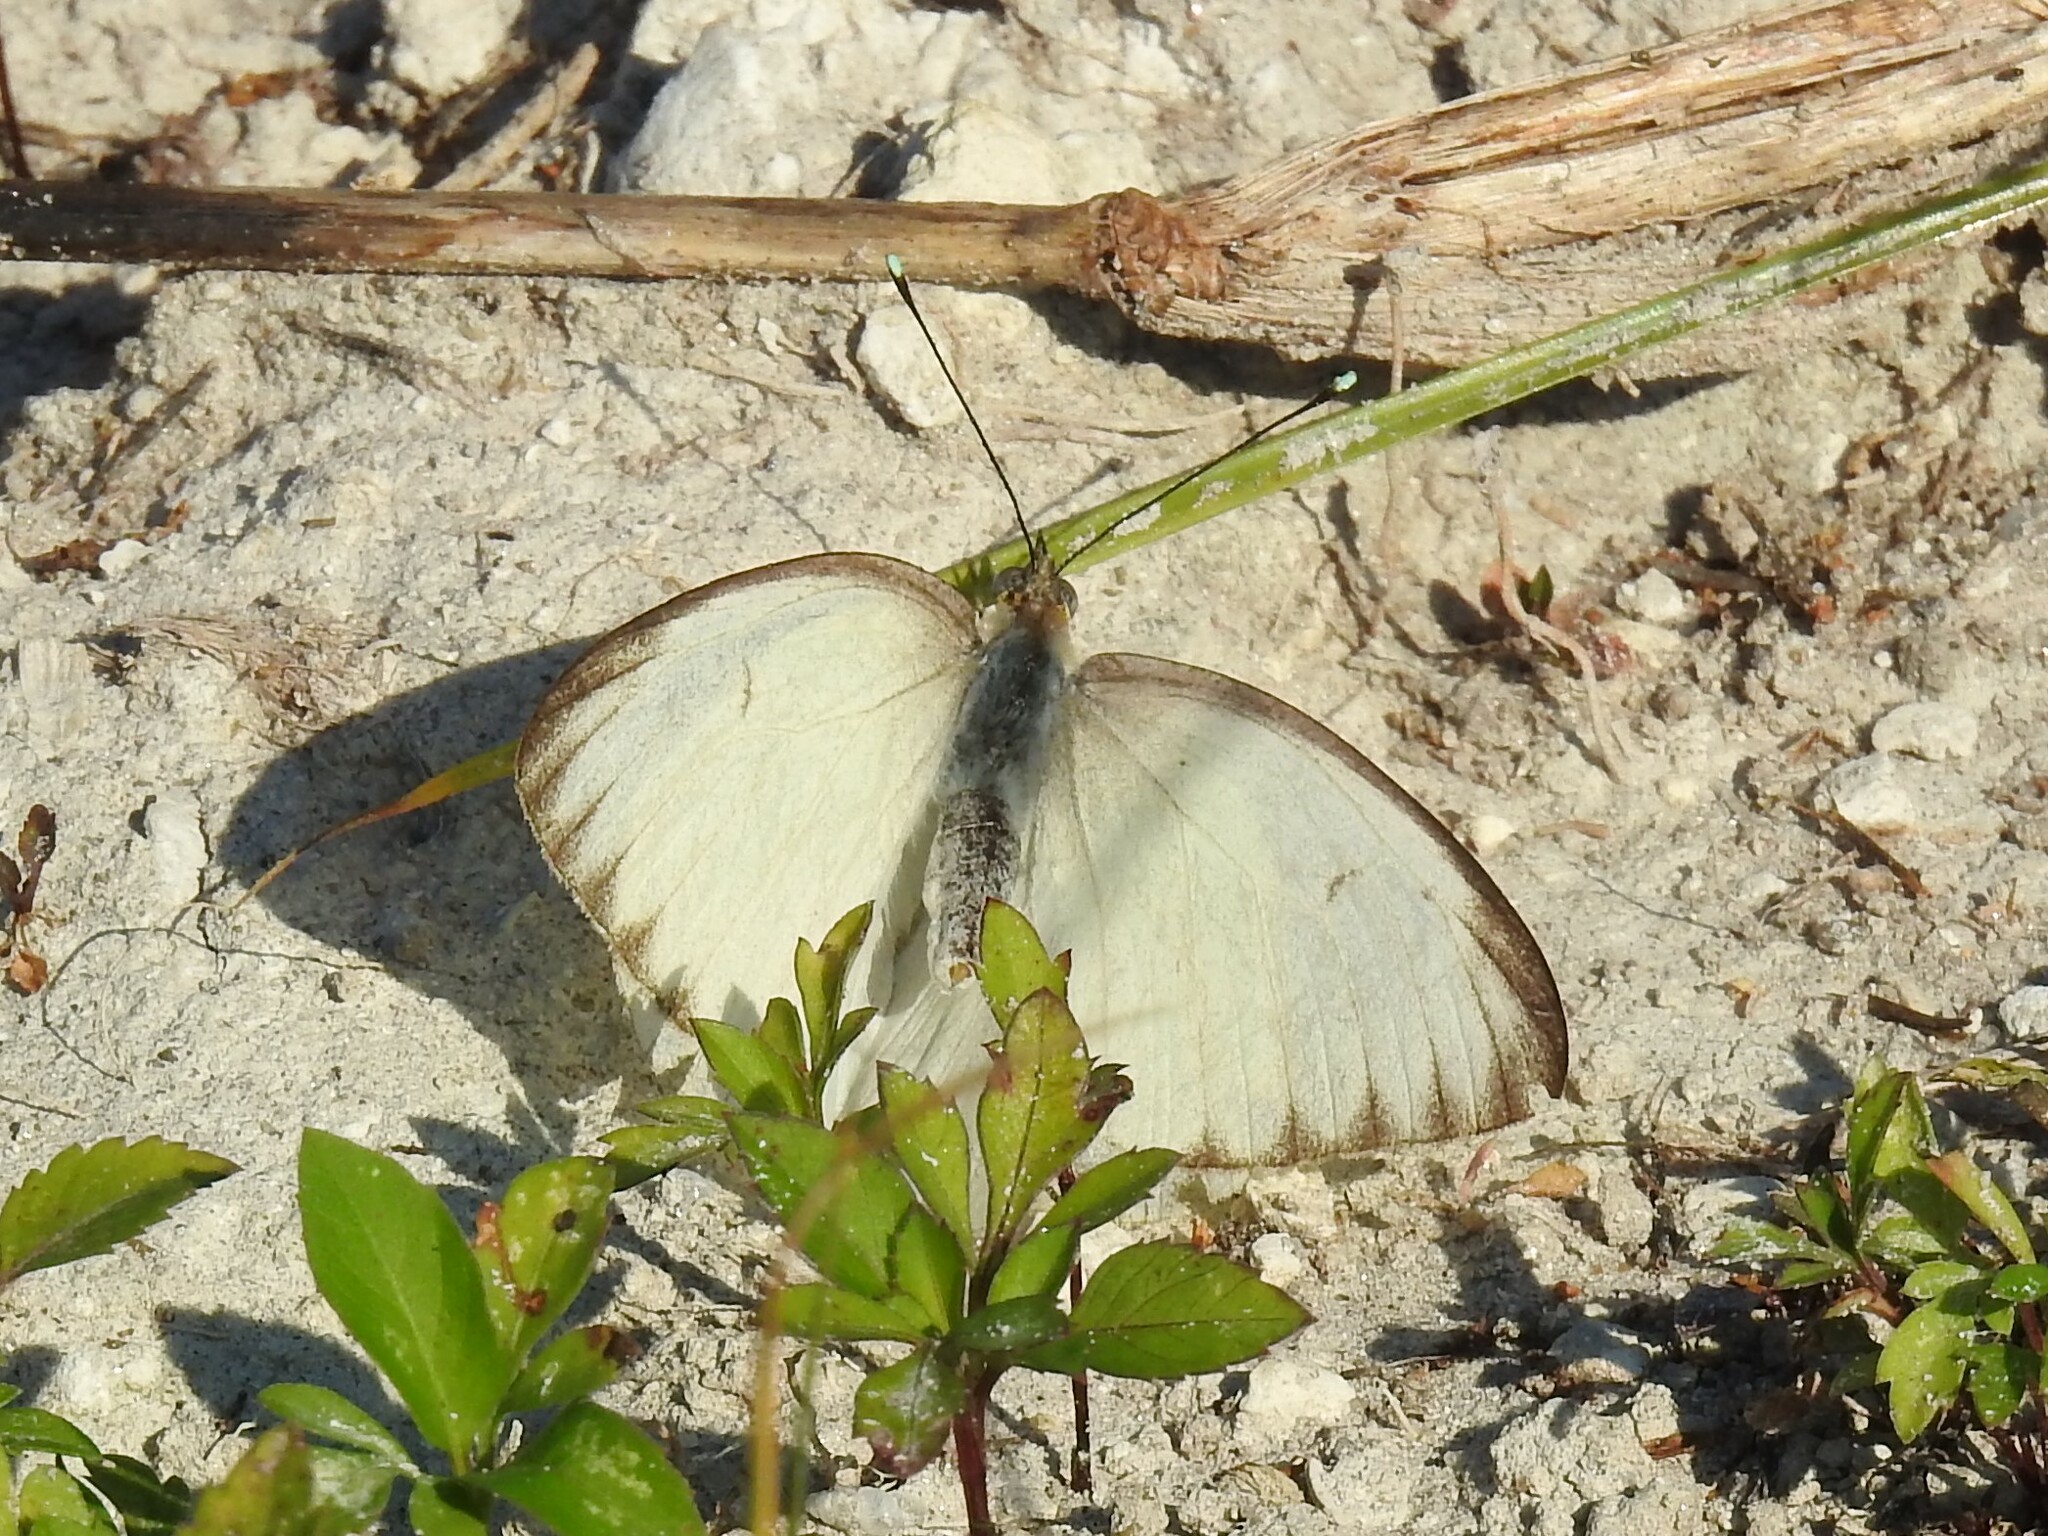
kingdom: Animalia
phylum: Arthropoda
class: Insecta
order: Lepidoptera
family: Pieridae
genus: Ascia
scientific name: Ascia monuste
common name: Great southern white
